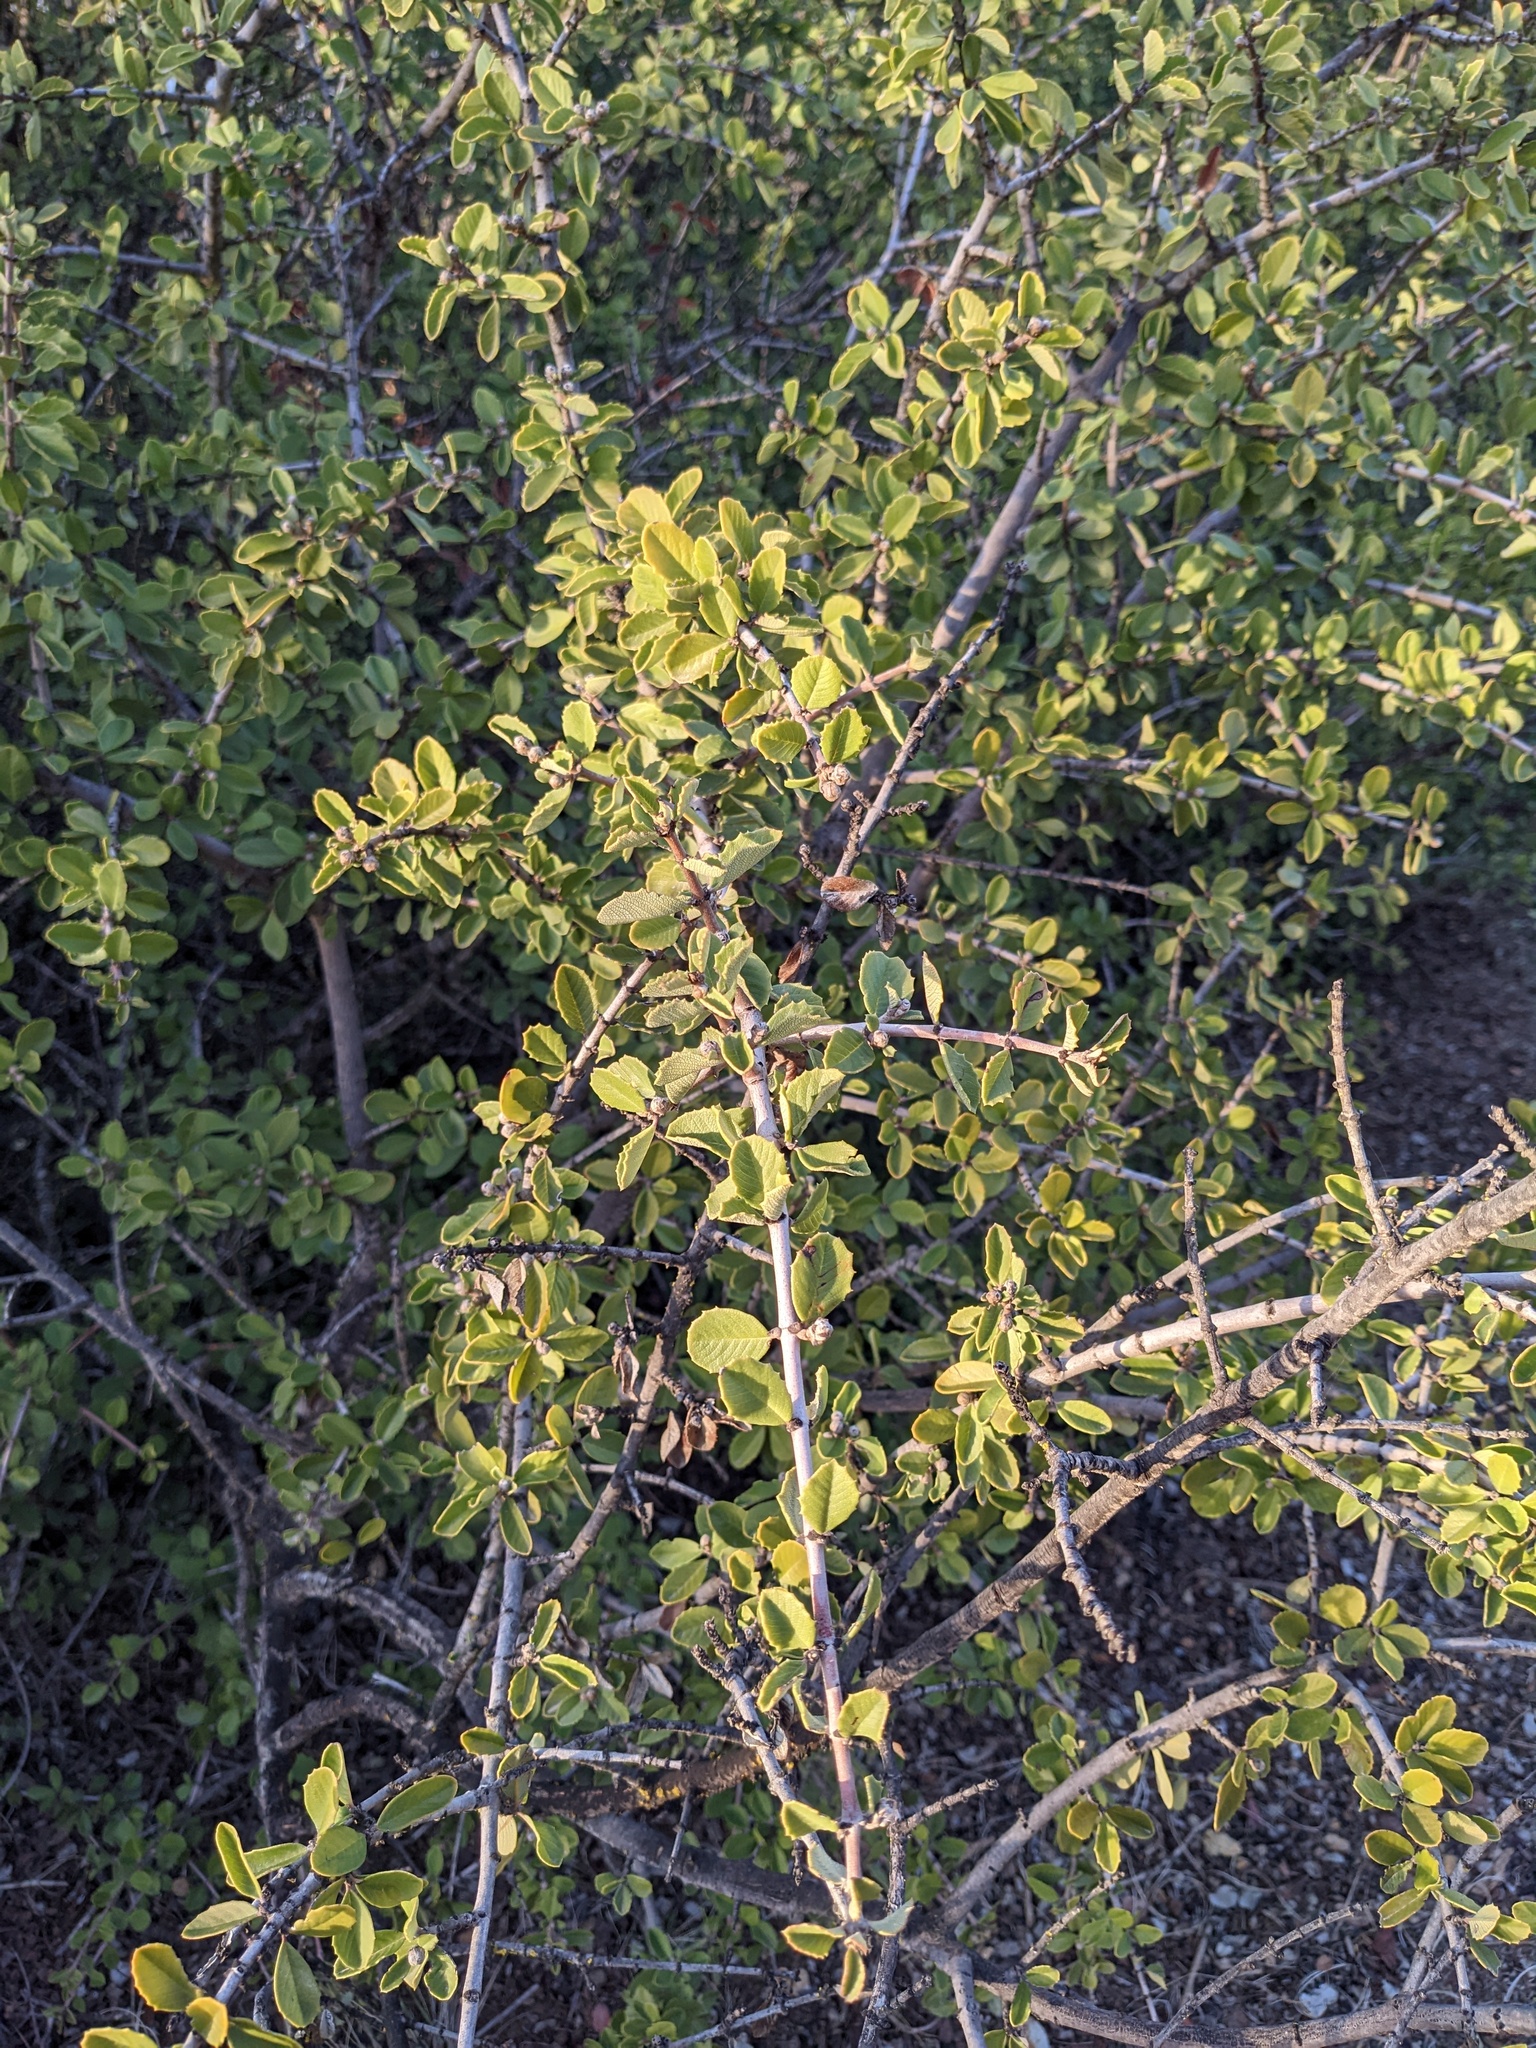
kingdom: Plantae
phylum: Tracheophyta
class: Magnoliopsida
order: Rosales
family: Rhamnaceae
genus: Ceanothus
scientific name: Ceanothus ferrisiae
